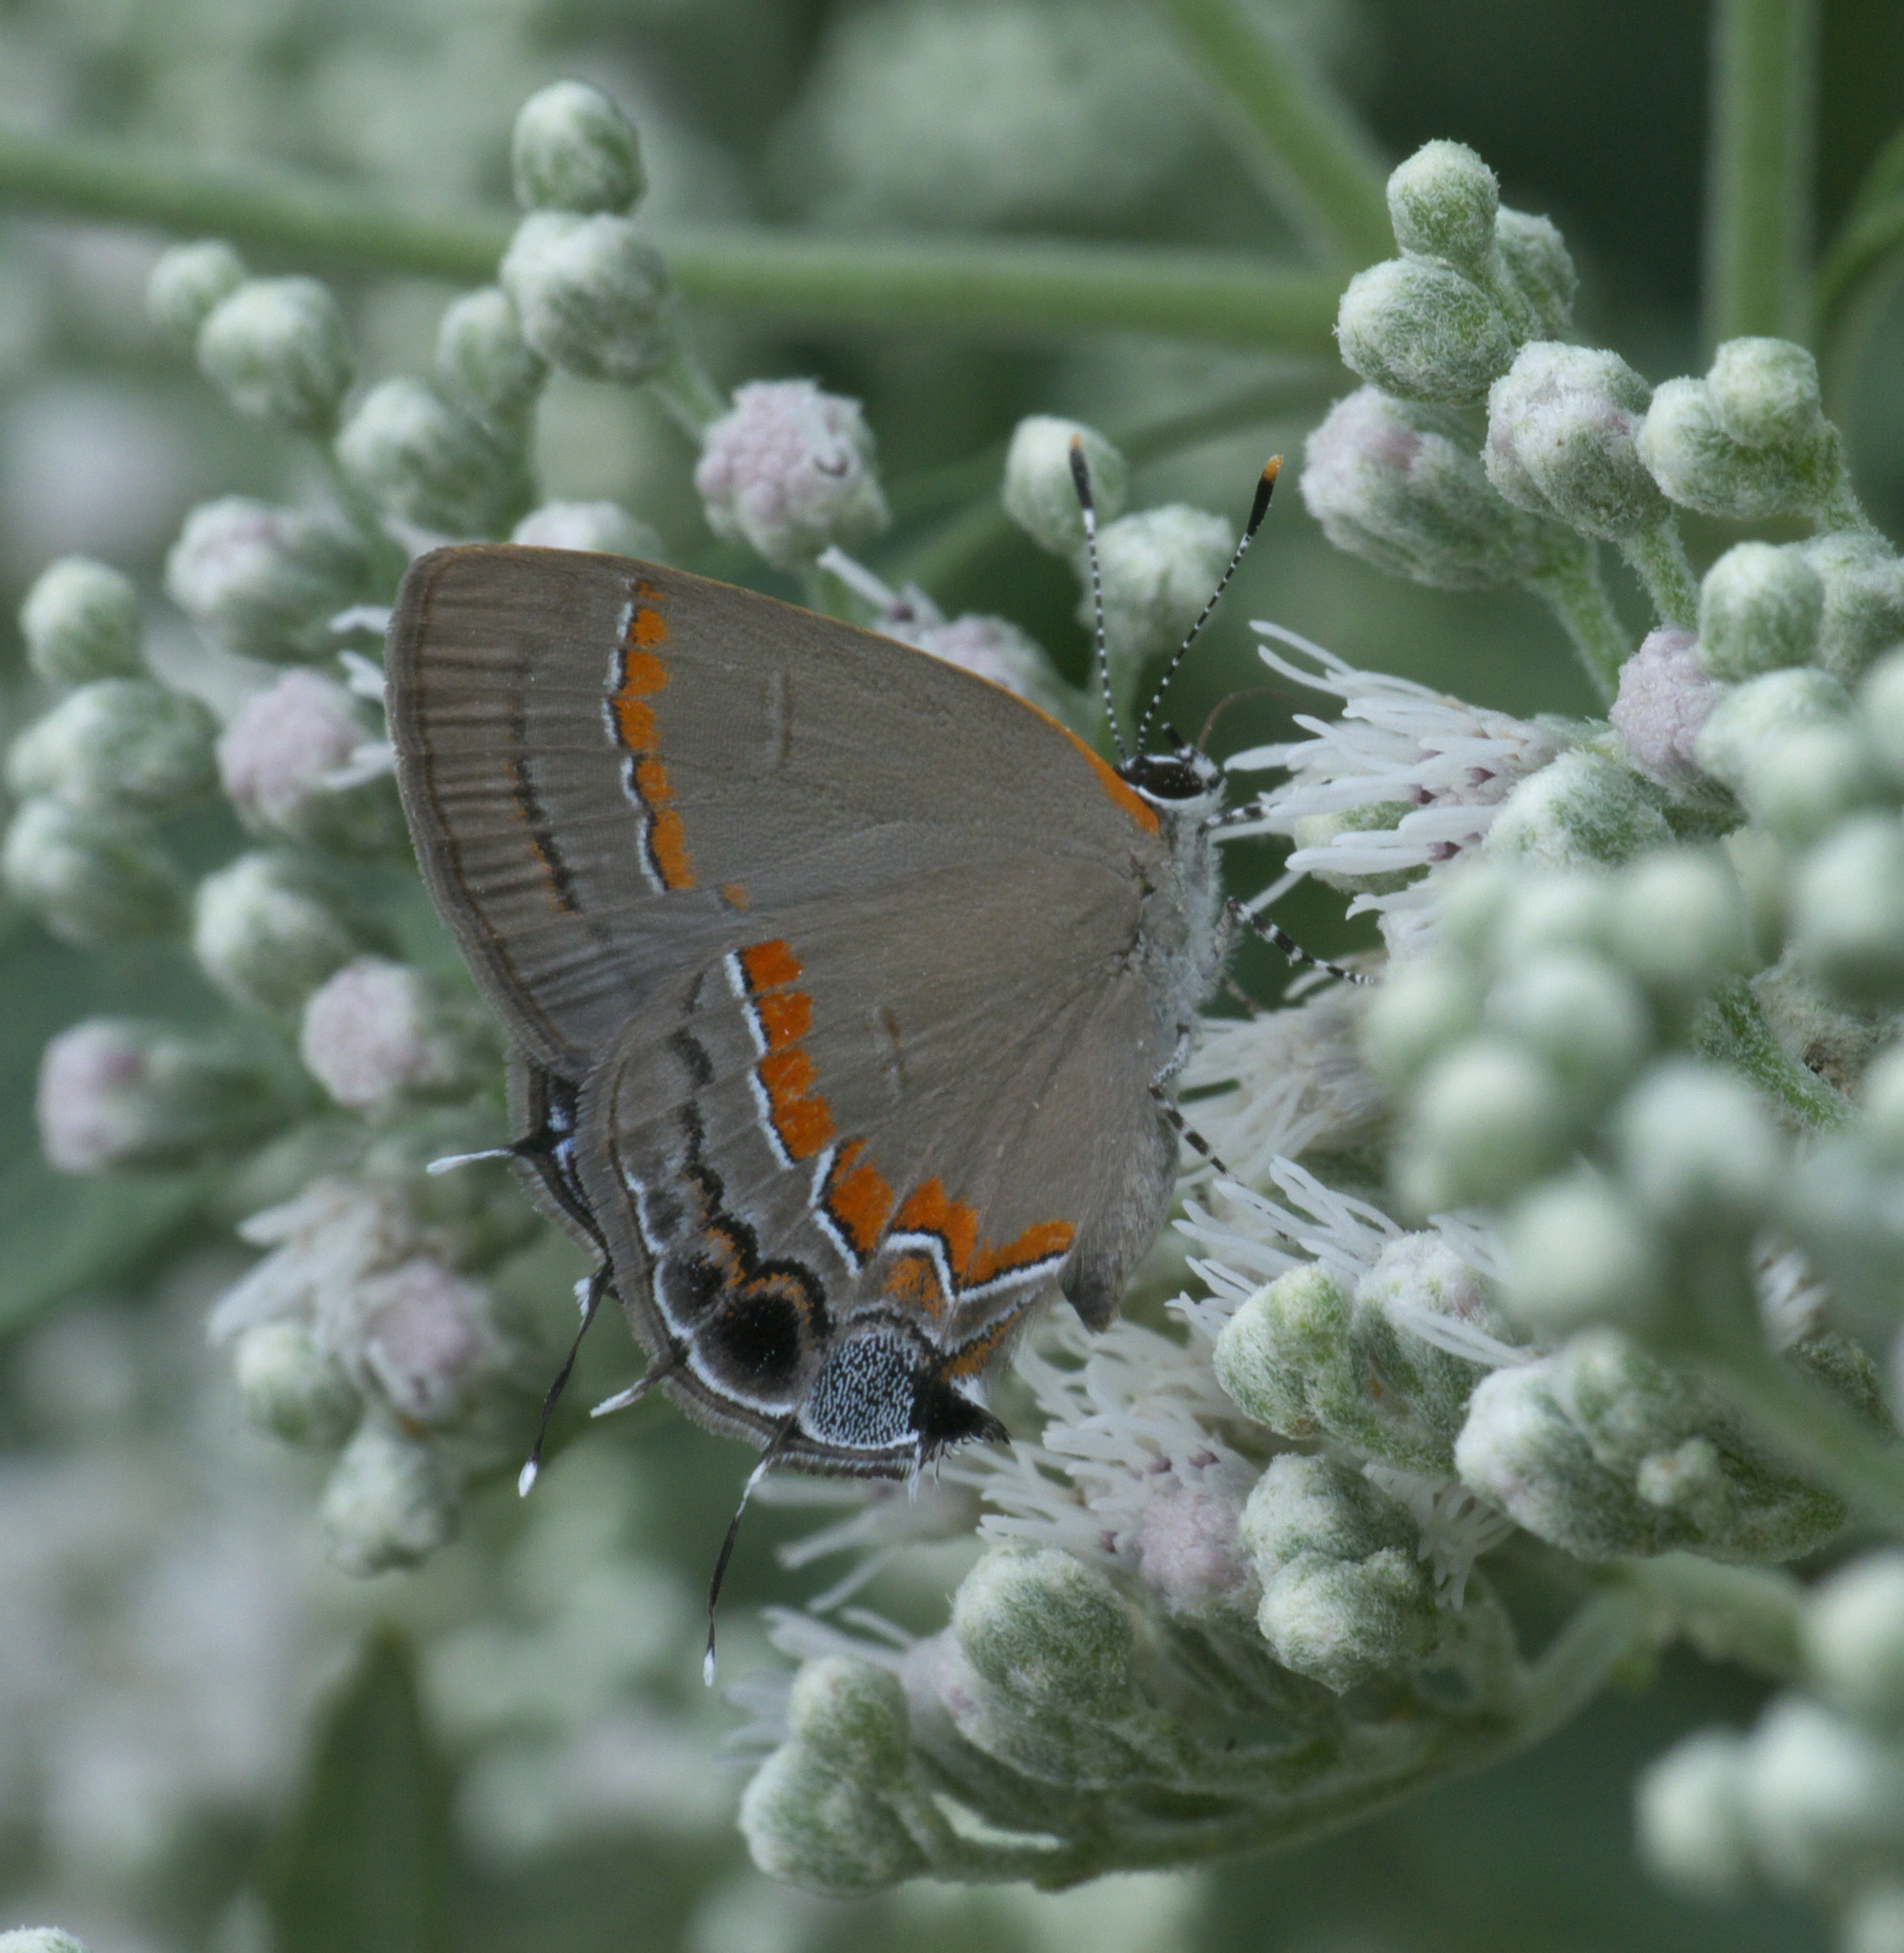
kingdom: Animalia
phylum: Arthropoda
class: Insecta
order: Lepidoptera
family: Lycaenidae
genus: Calycopis
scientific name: Calycopis cecrops
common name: Red-banded hairstreak
